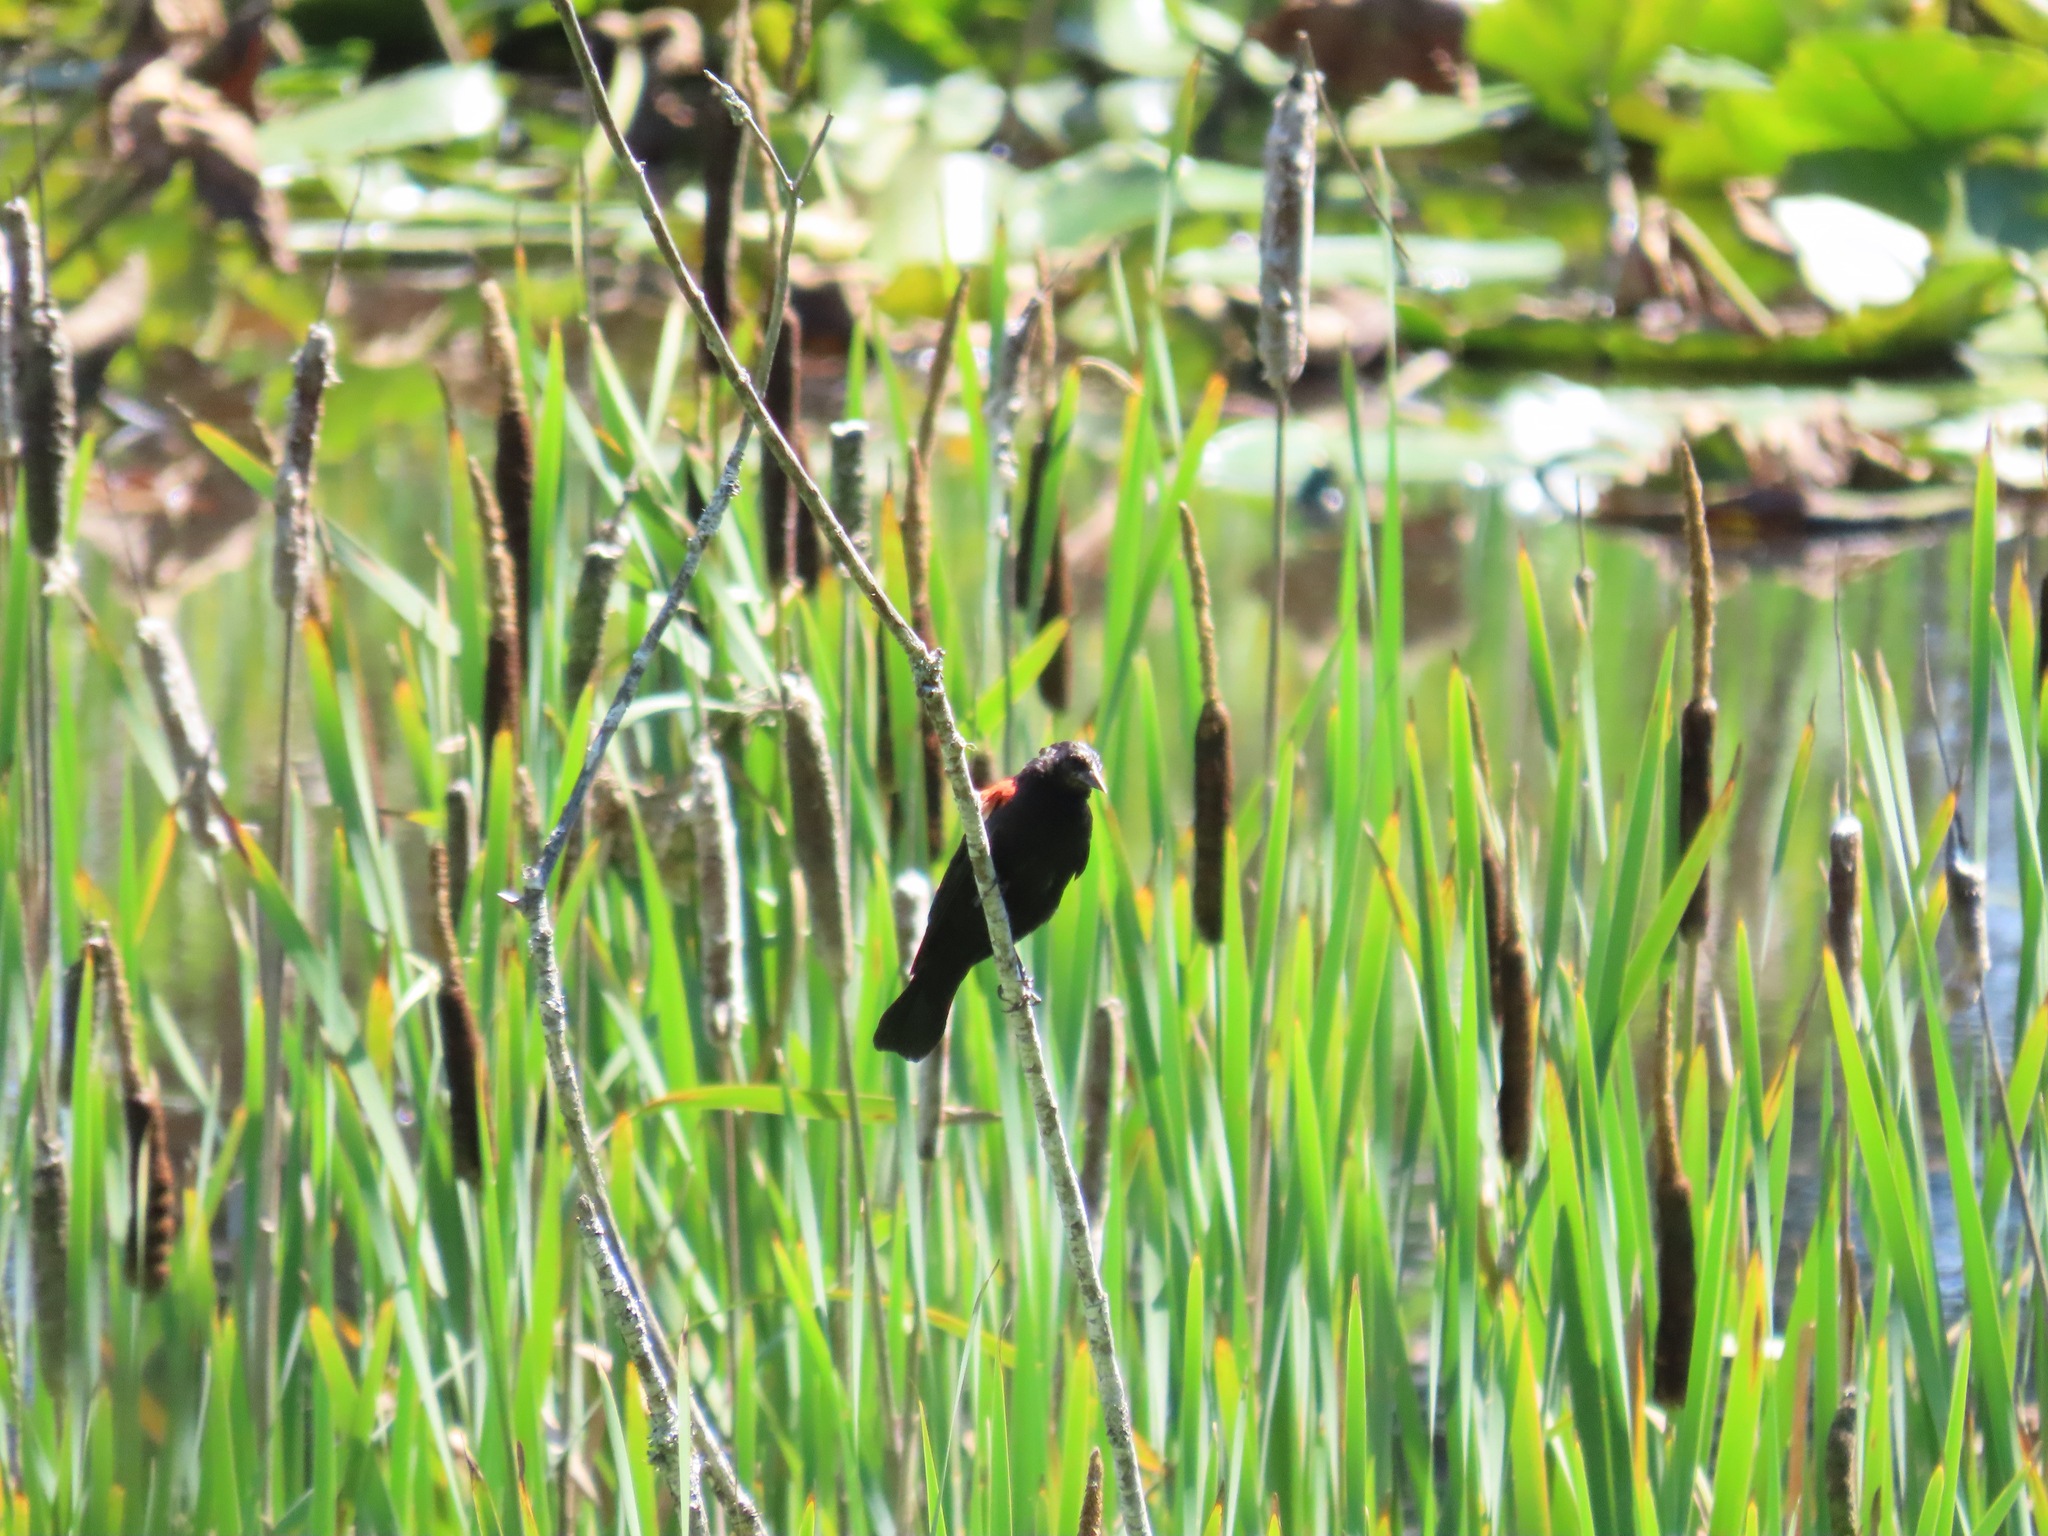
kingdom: Animalia
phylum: Chordata
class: Aves
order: Passeriformes
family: Icteridae
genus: Agelaius
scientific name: Agelaius phoeniceus
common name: Red-winged blackbird
